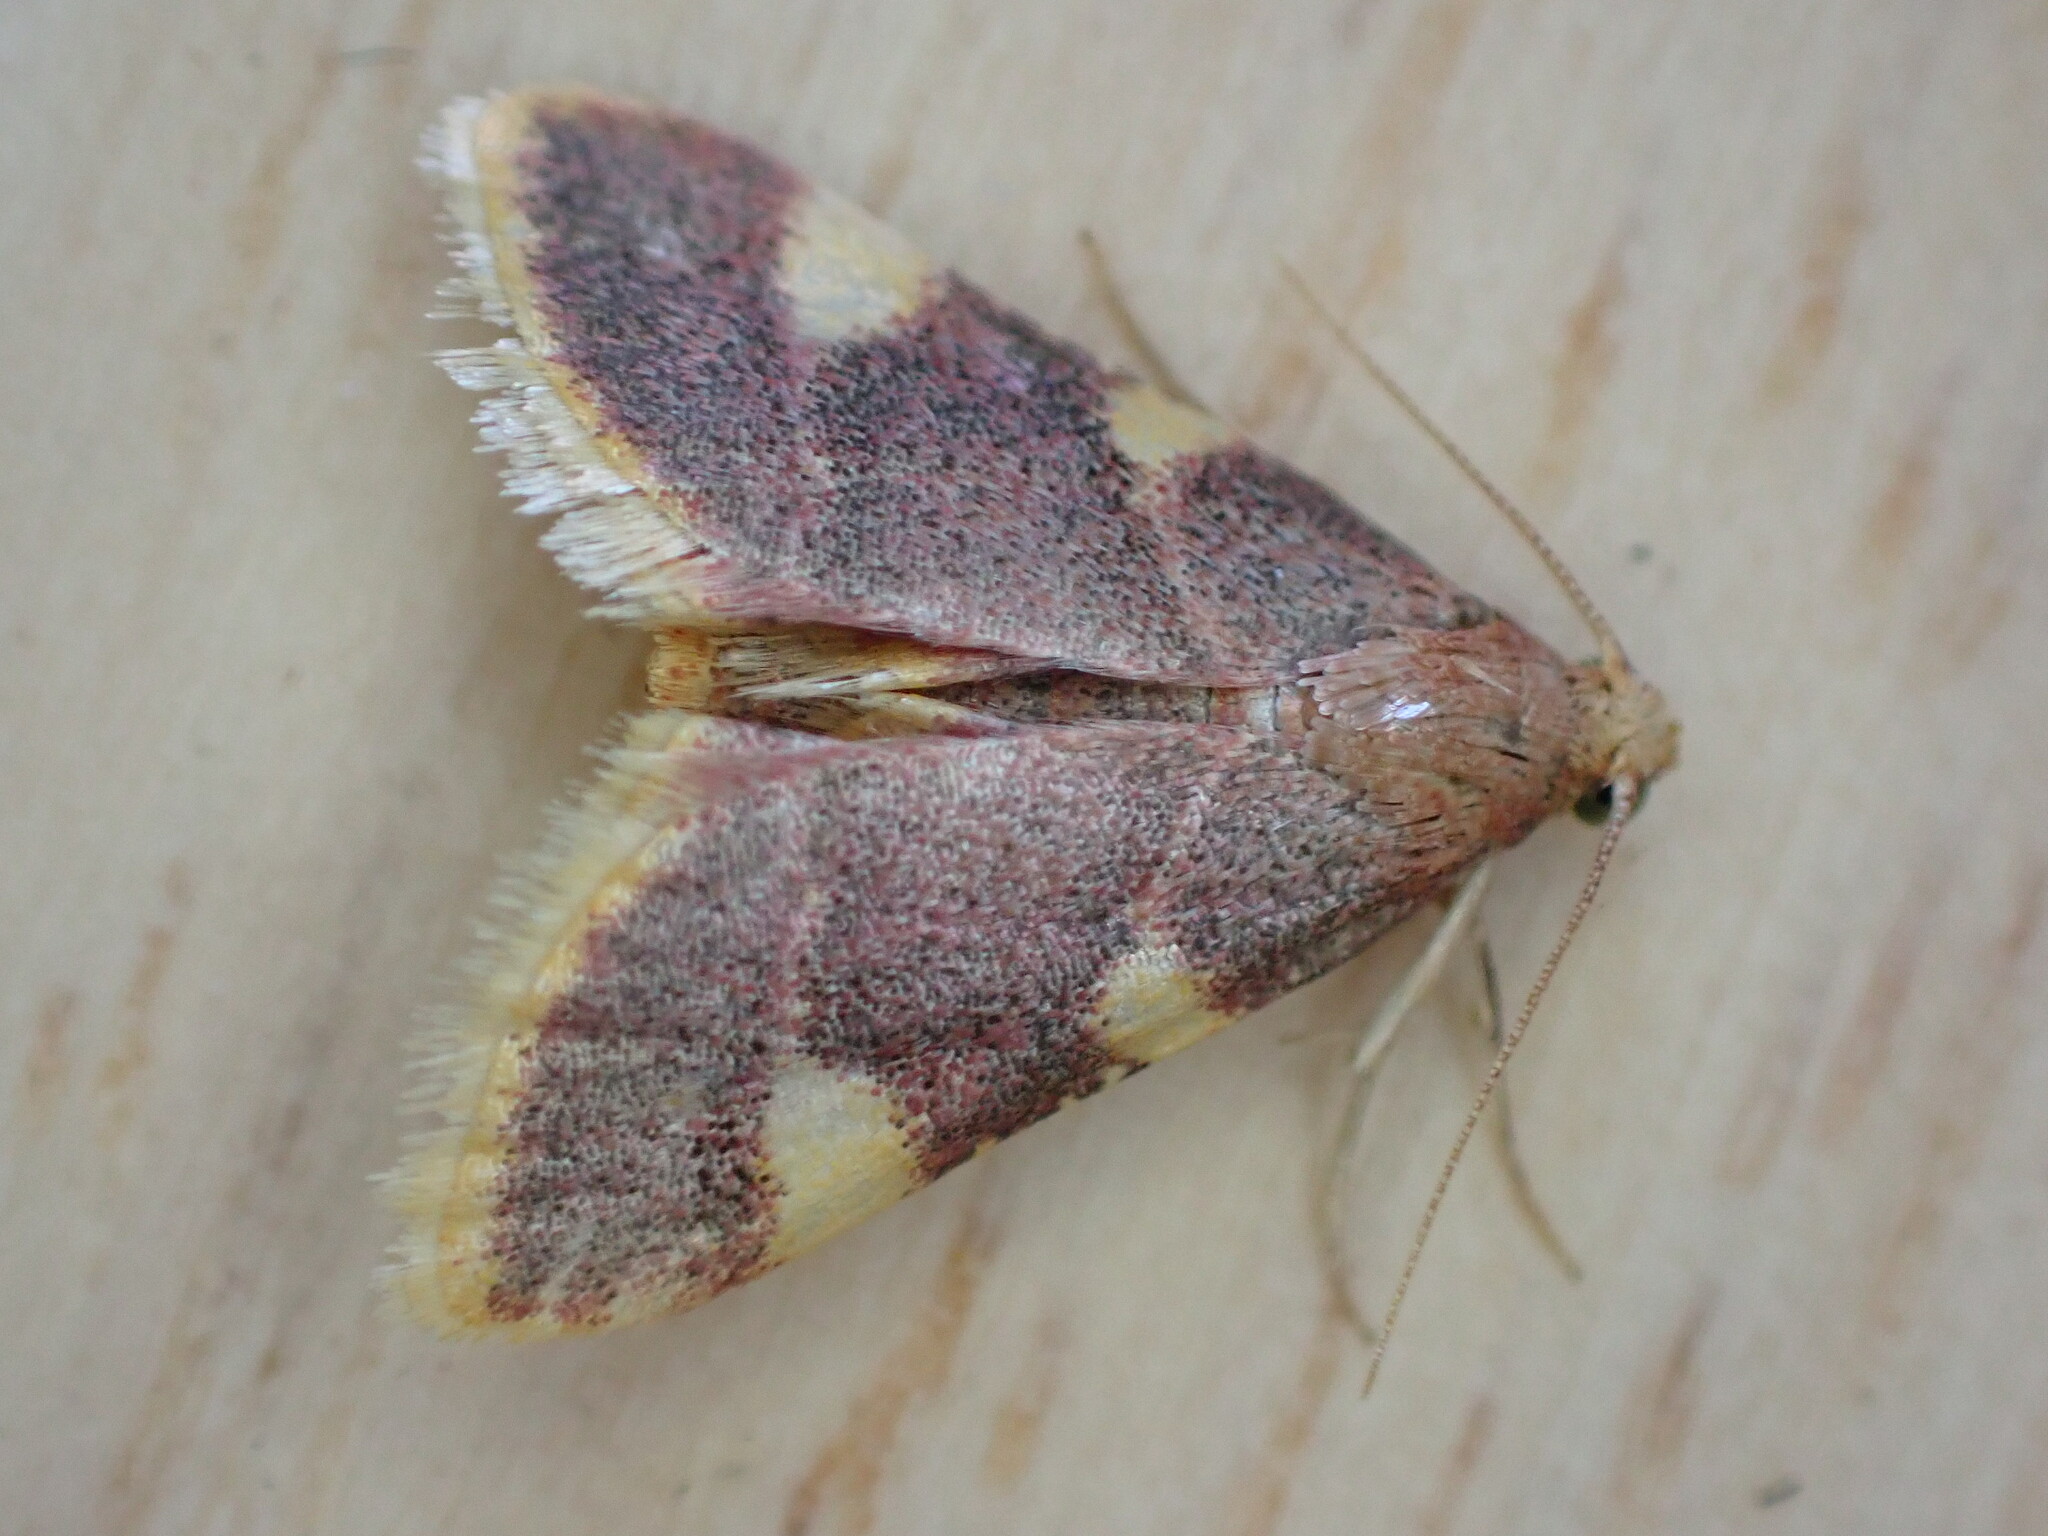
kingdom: Animalia
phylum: Arthropoda
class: Insecta
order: Lepidoptera
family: Pyralidae
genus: Hypsopygia
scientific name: Hypsopygia costalis
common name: Gold triangle
